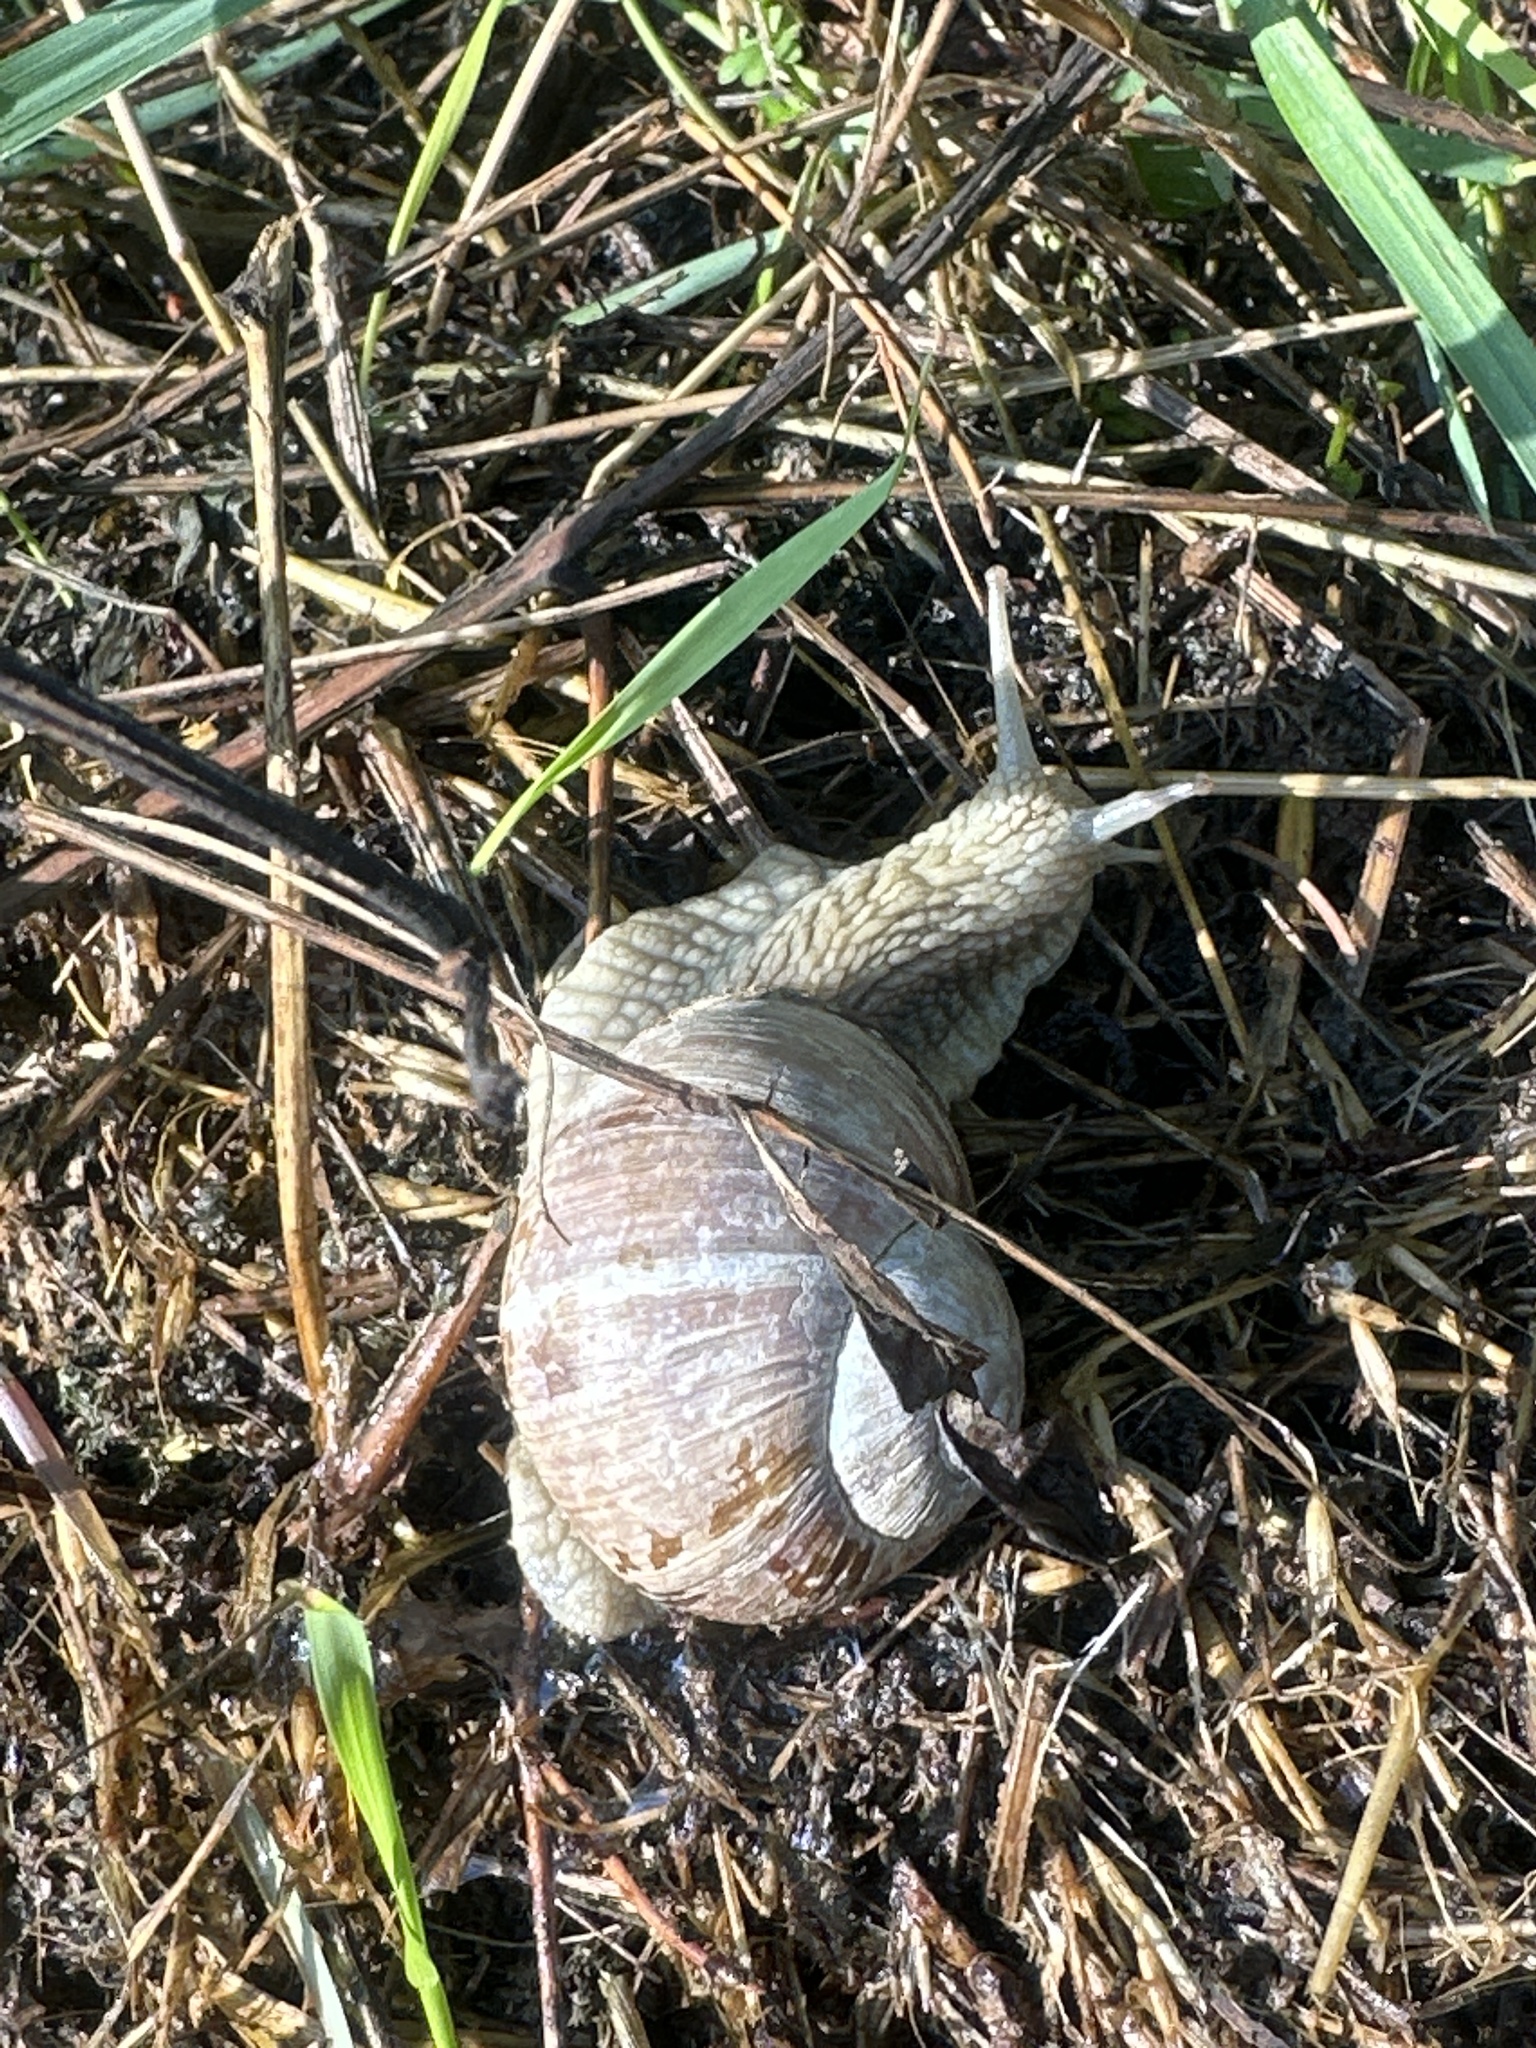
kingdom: Animalia
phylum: Mollusca
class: Gastropoda
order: Stylommatophora
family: Helicidae
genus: Helix
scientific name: Helix pomatia
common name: Roman snail
